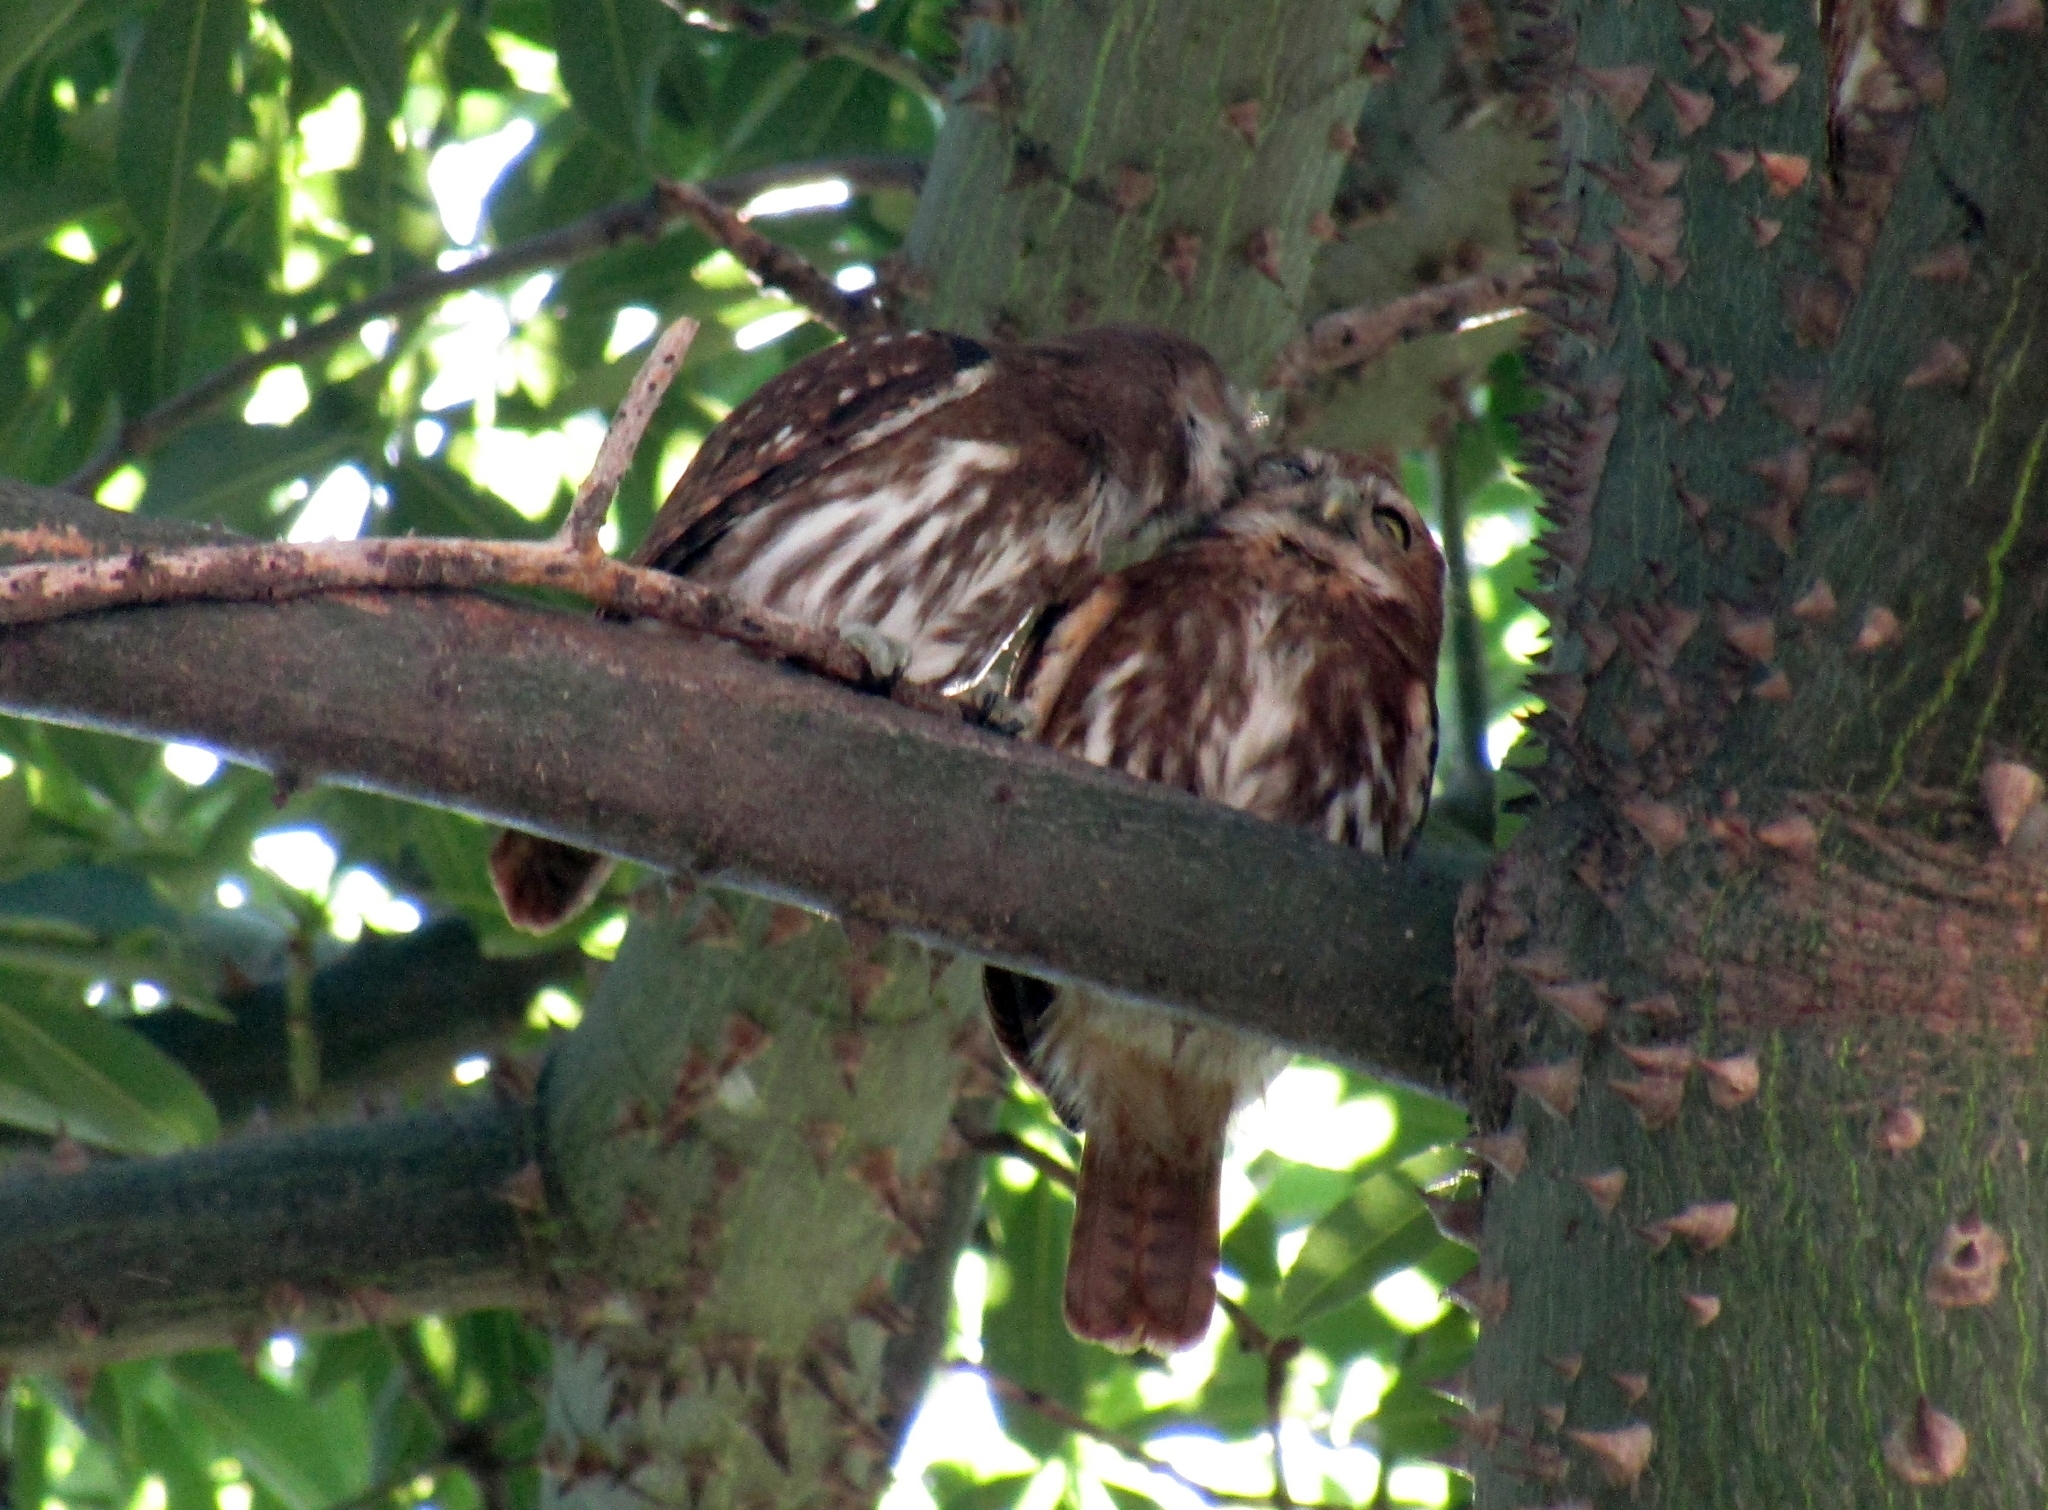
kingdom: Animalia
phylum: Chordata
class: Aves
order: Strigiformes
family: Strigidae
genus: Glaucidium
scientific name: Glaucidium brasilianum
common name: Ferruginous pygmy-owl
